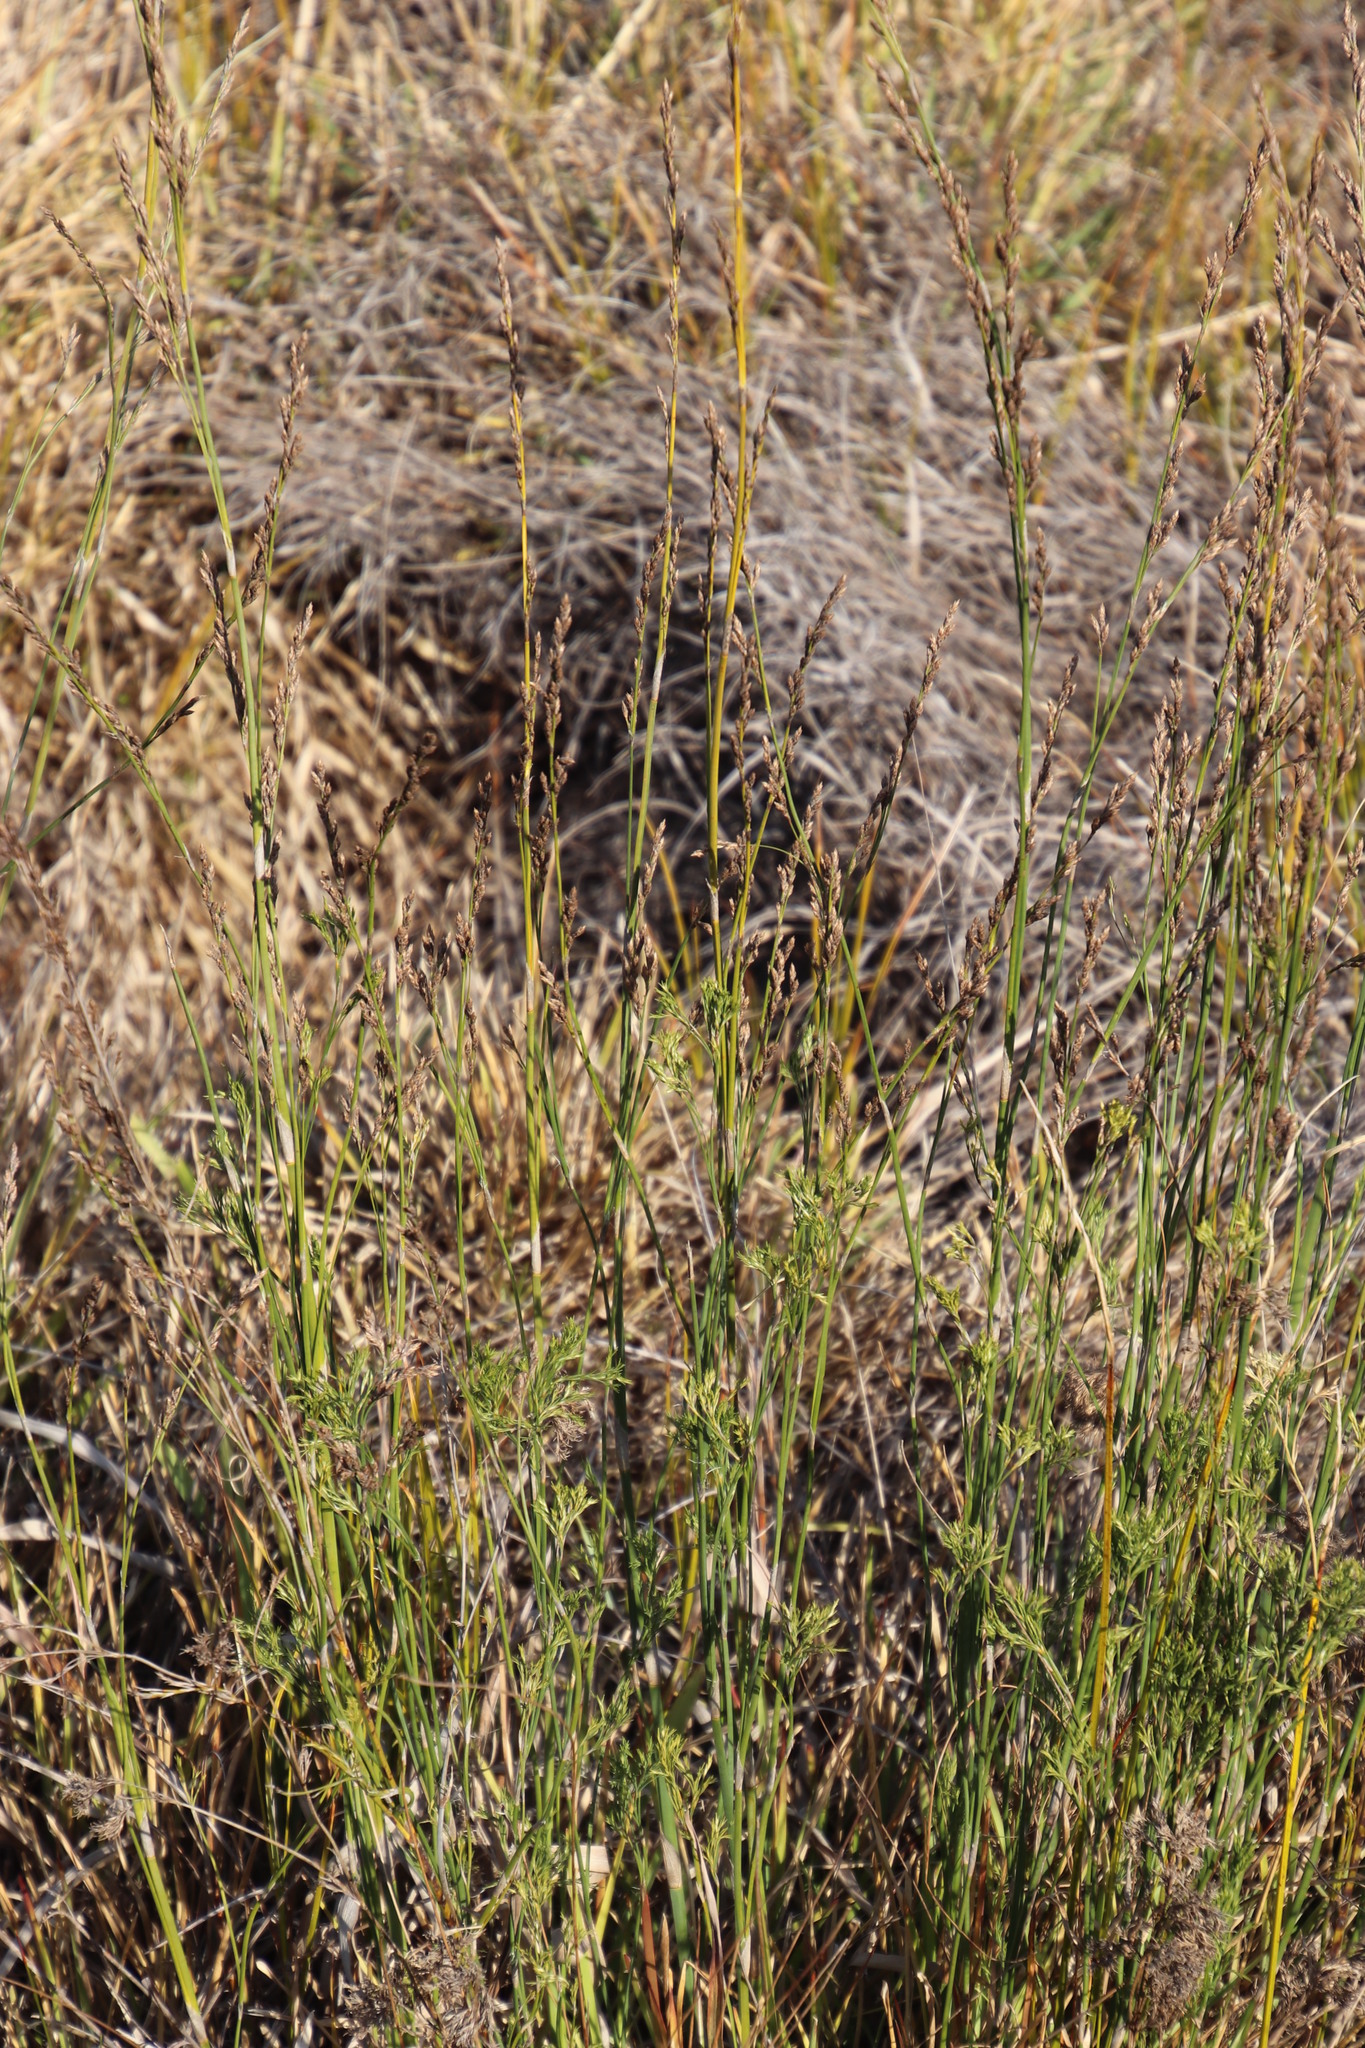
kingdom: Plantae
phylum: Tracheophyta
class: Liliopsida
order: Poales
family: Restionaceae
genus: Restio
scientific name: Restio tetragonus
